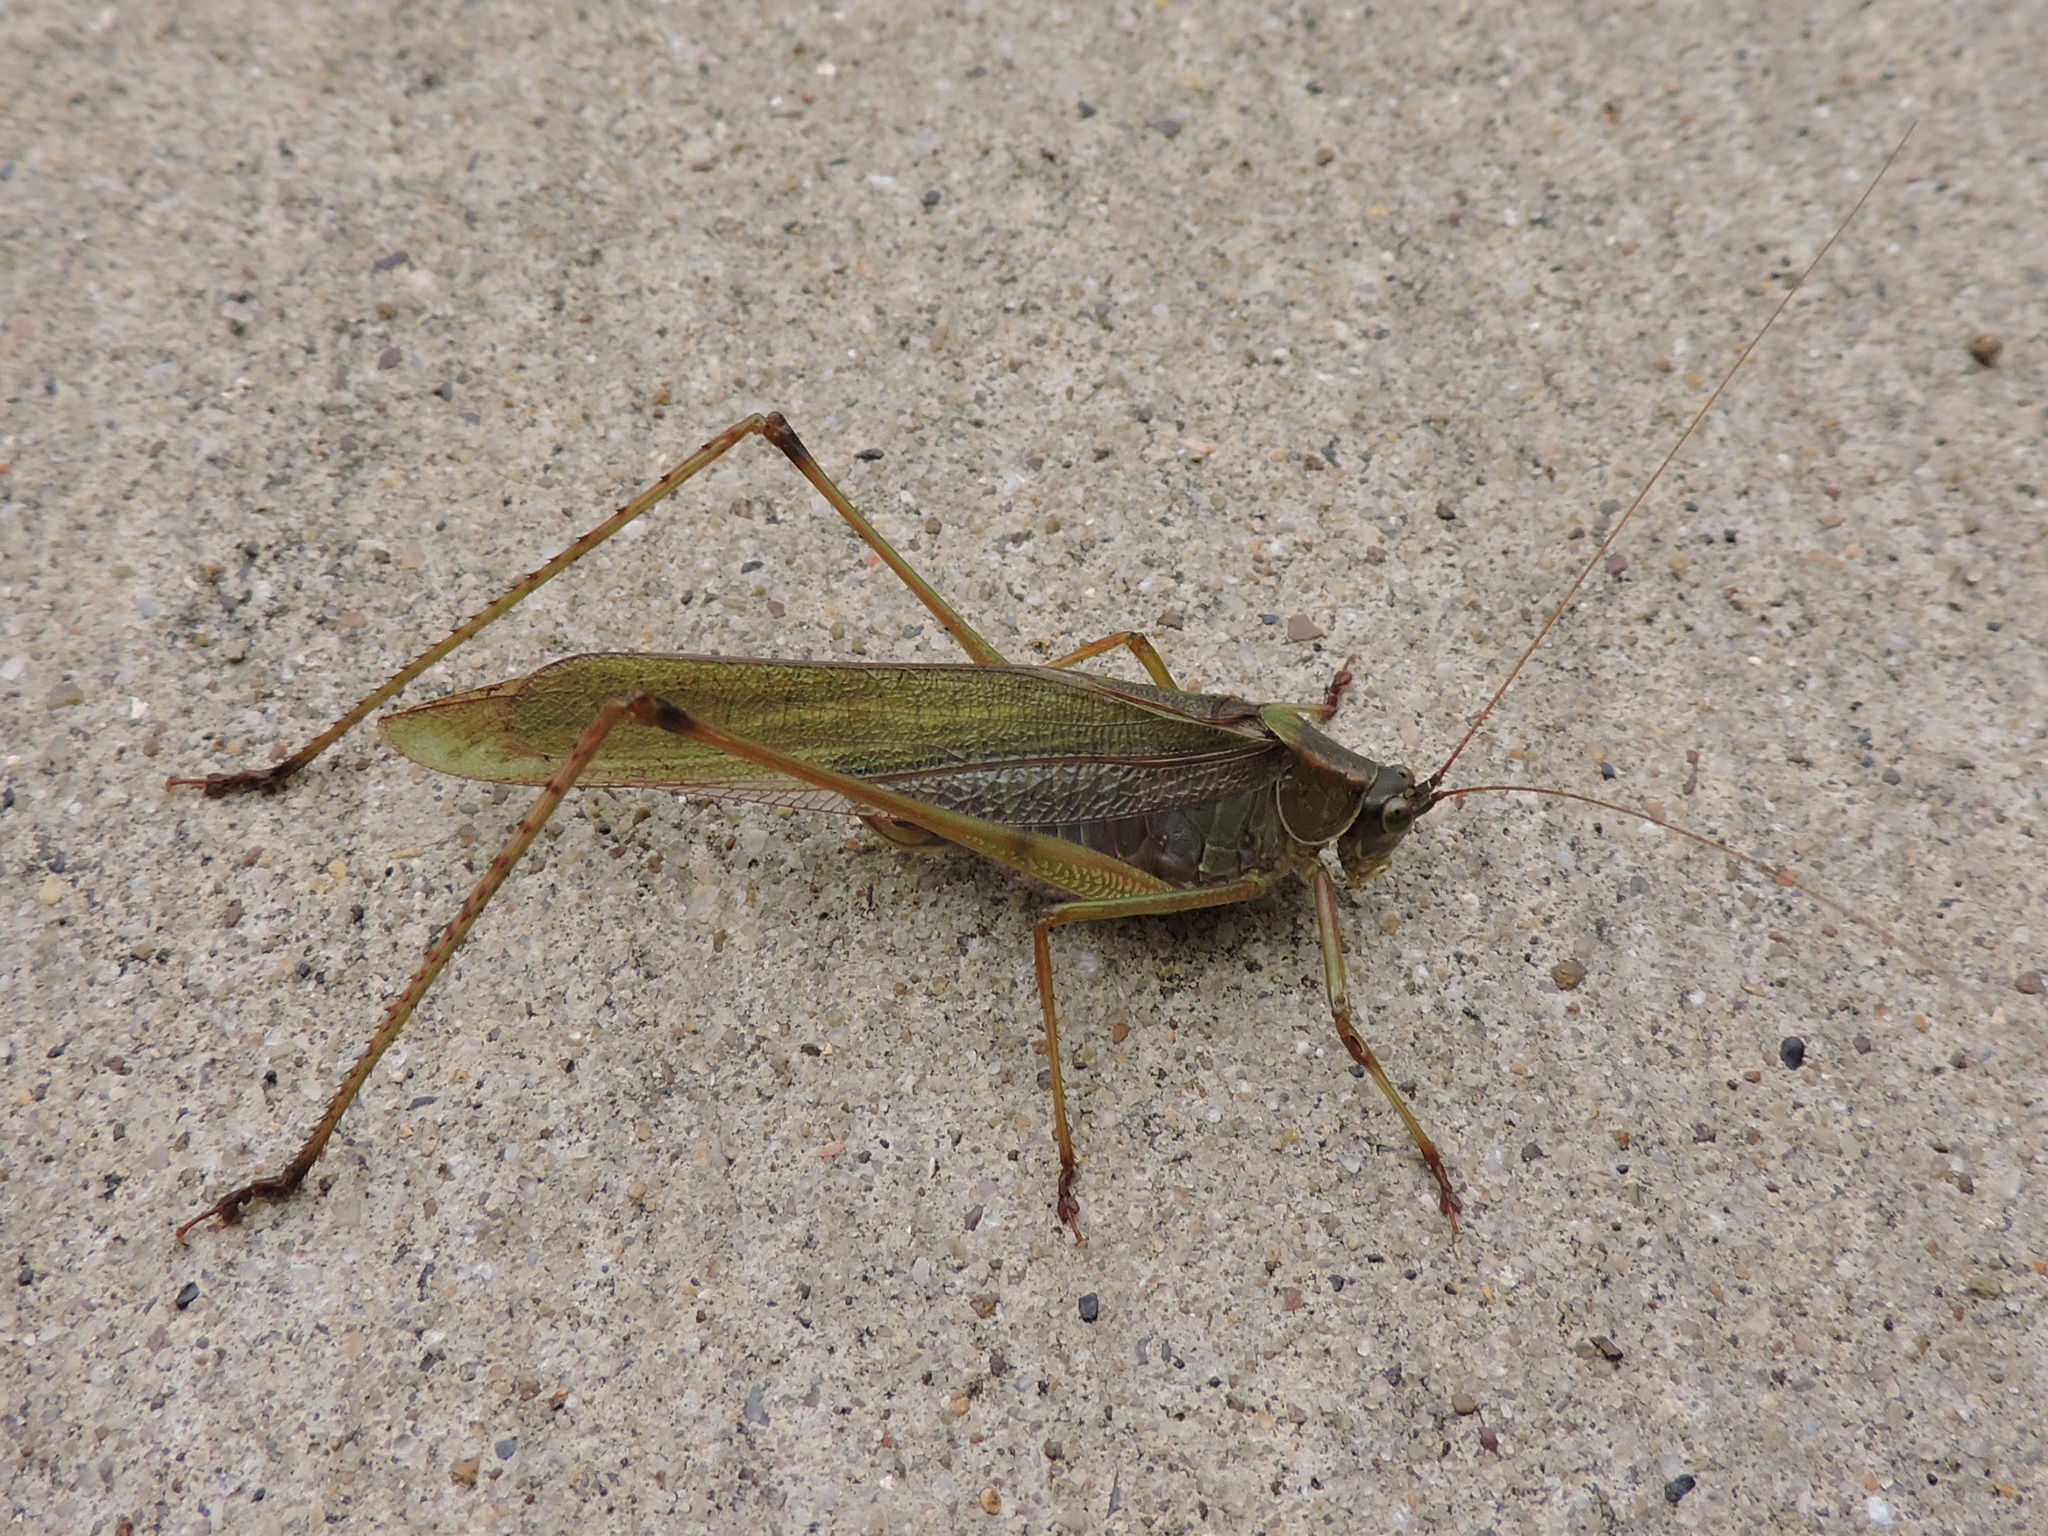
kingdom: Animalia
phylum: Arthropoda
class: Insecta
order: Orthoptera
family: Tettigoniidae
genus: Scudderia
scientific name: Scudderia furcata
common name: Fork-tailed bush katydid
